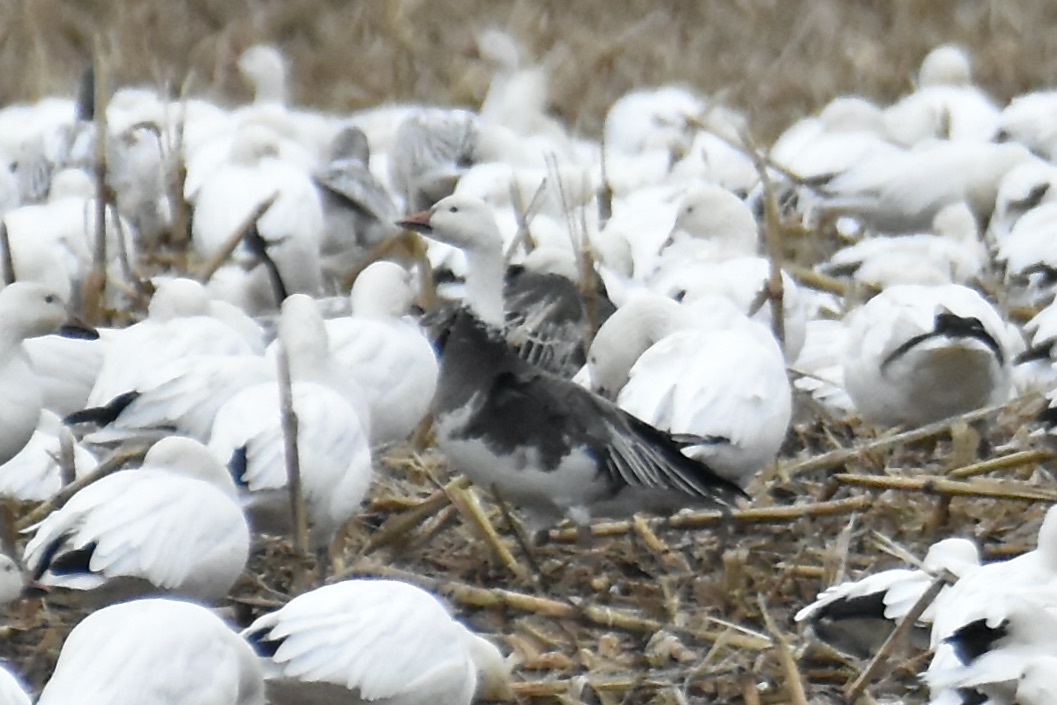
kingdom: Animalia
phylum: Chordata
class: Aves
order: Anseriformes
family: Anatidae
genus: Anser
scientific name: Anser caerulescens
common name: Snow goose
